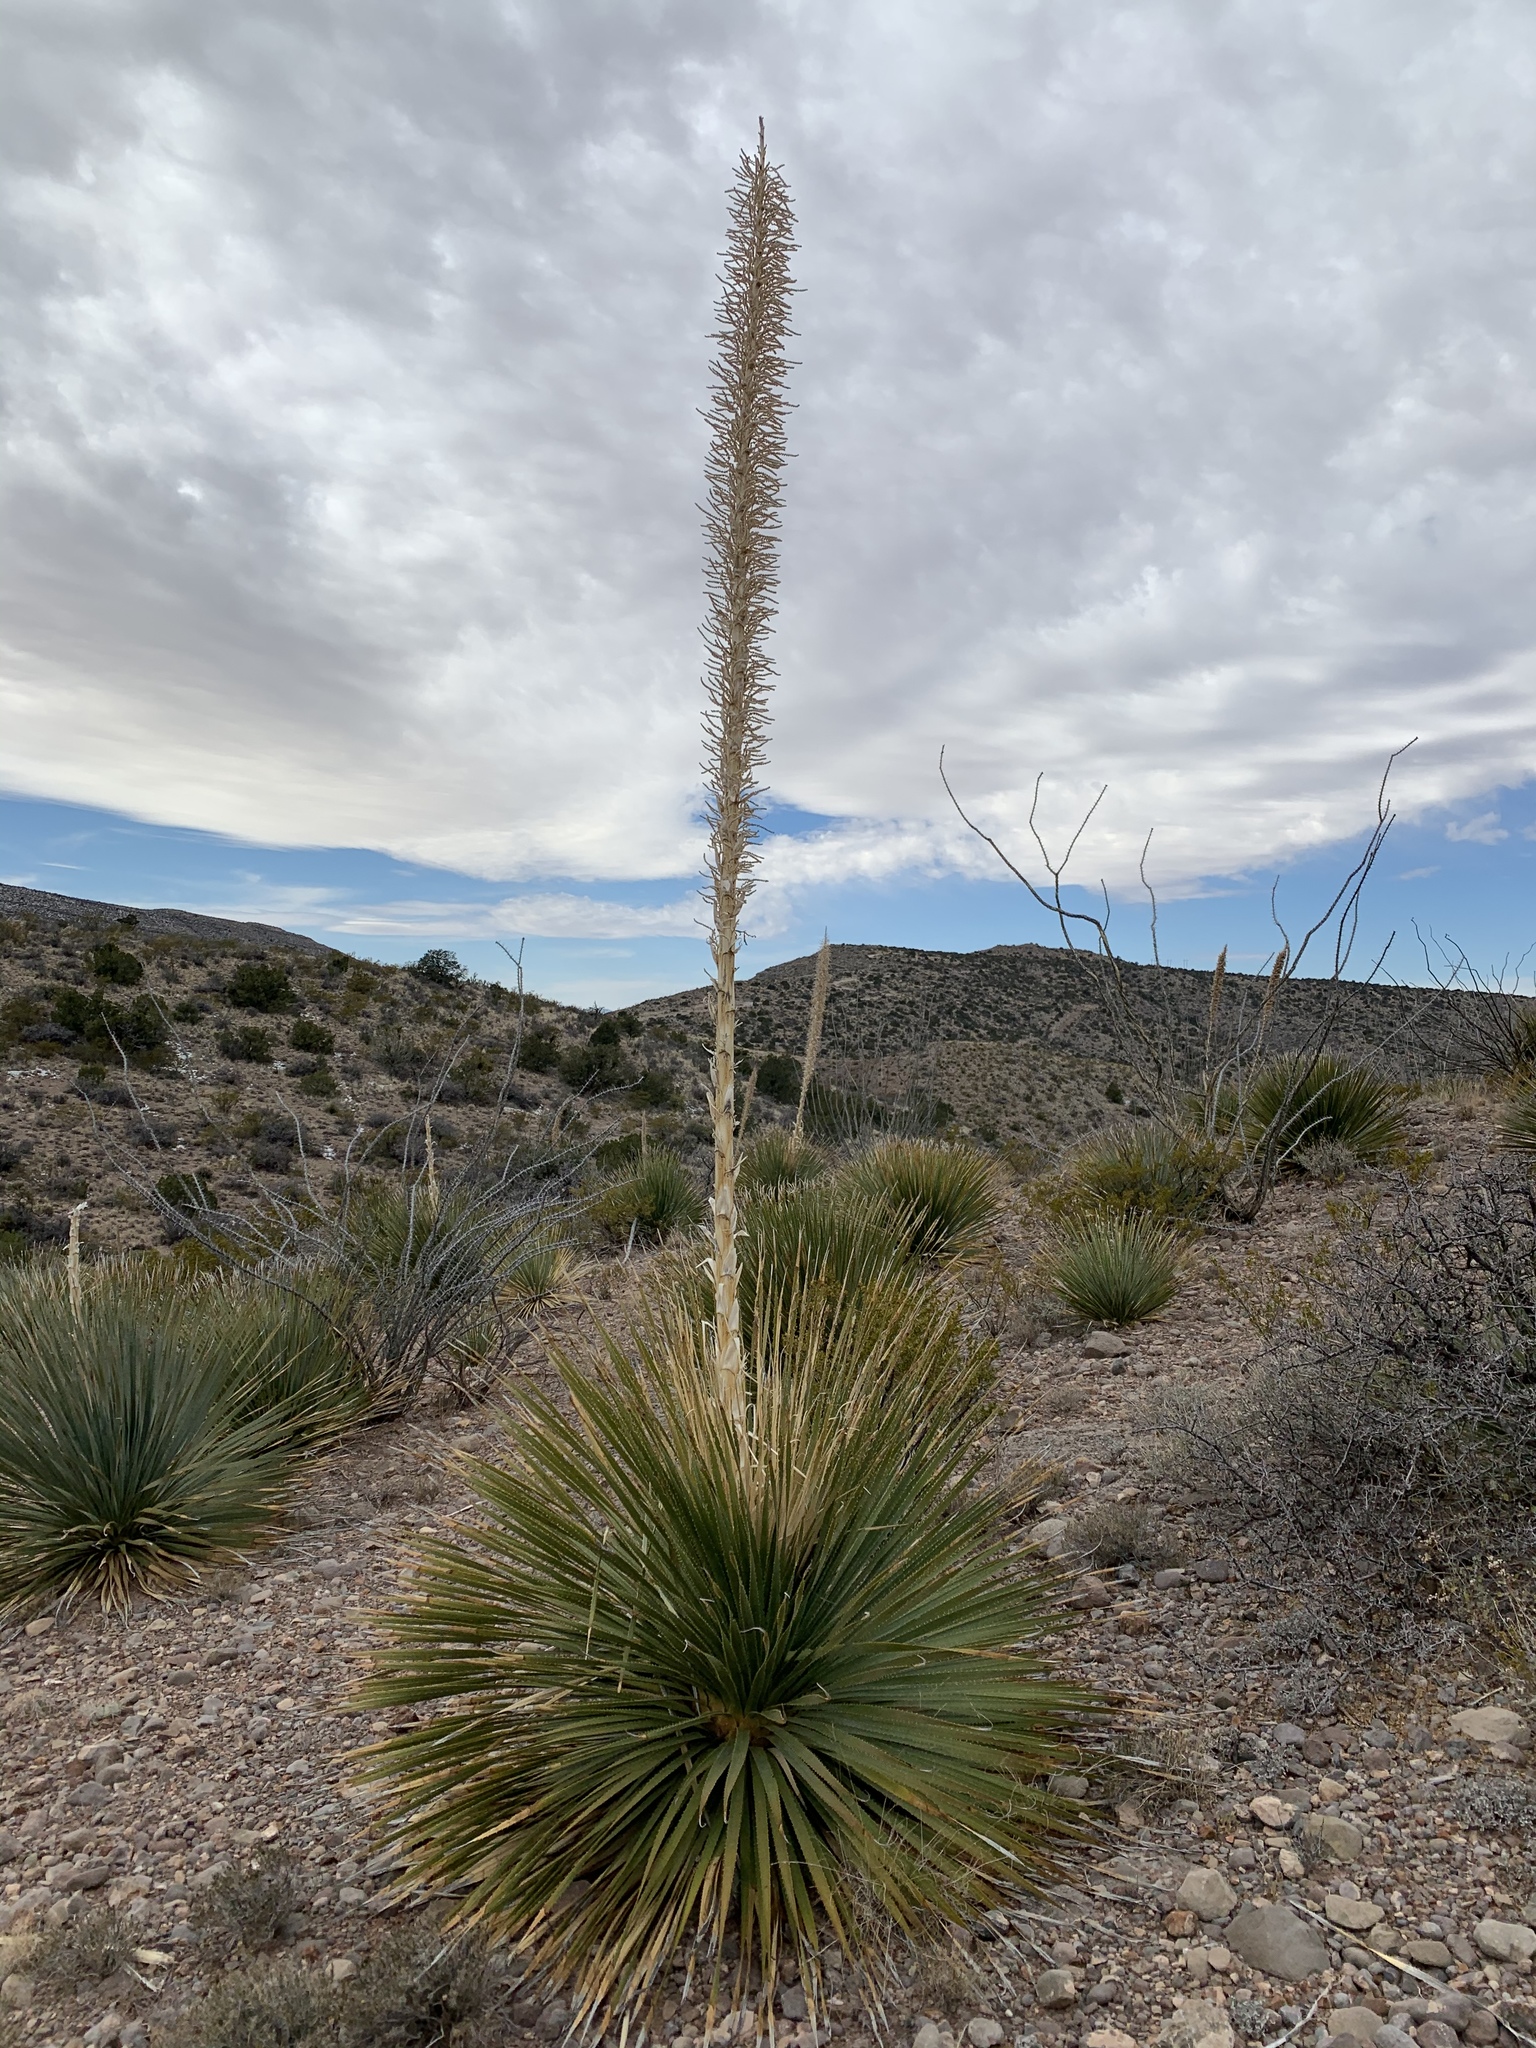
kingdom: Plantae
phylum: Tracheophyta
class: Liliopsida
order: Asparagales
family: Asparagaceae
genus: Dasylirion
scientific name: Dasylirion wheeleri
